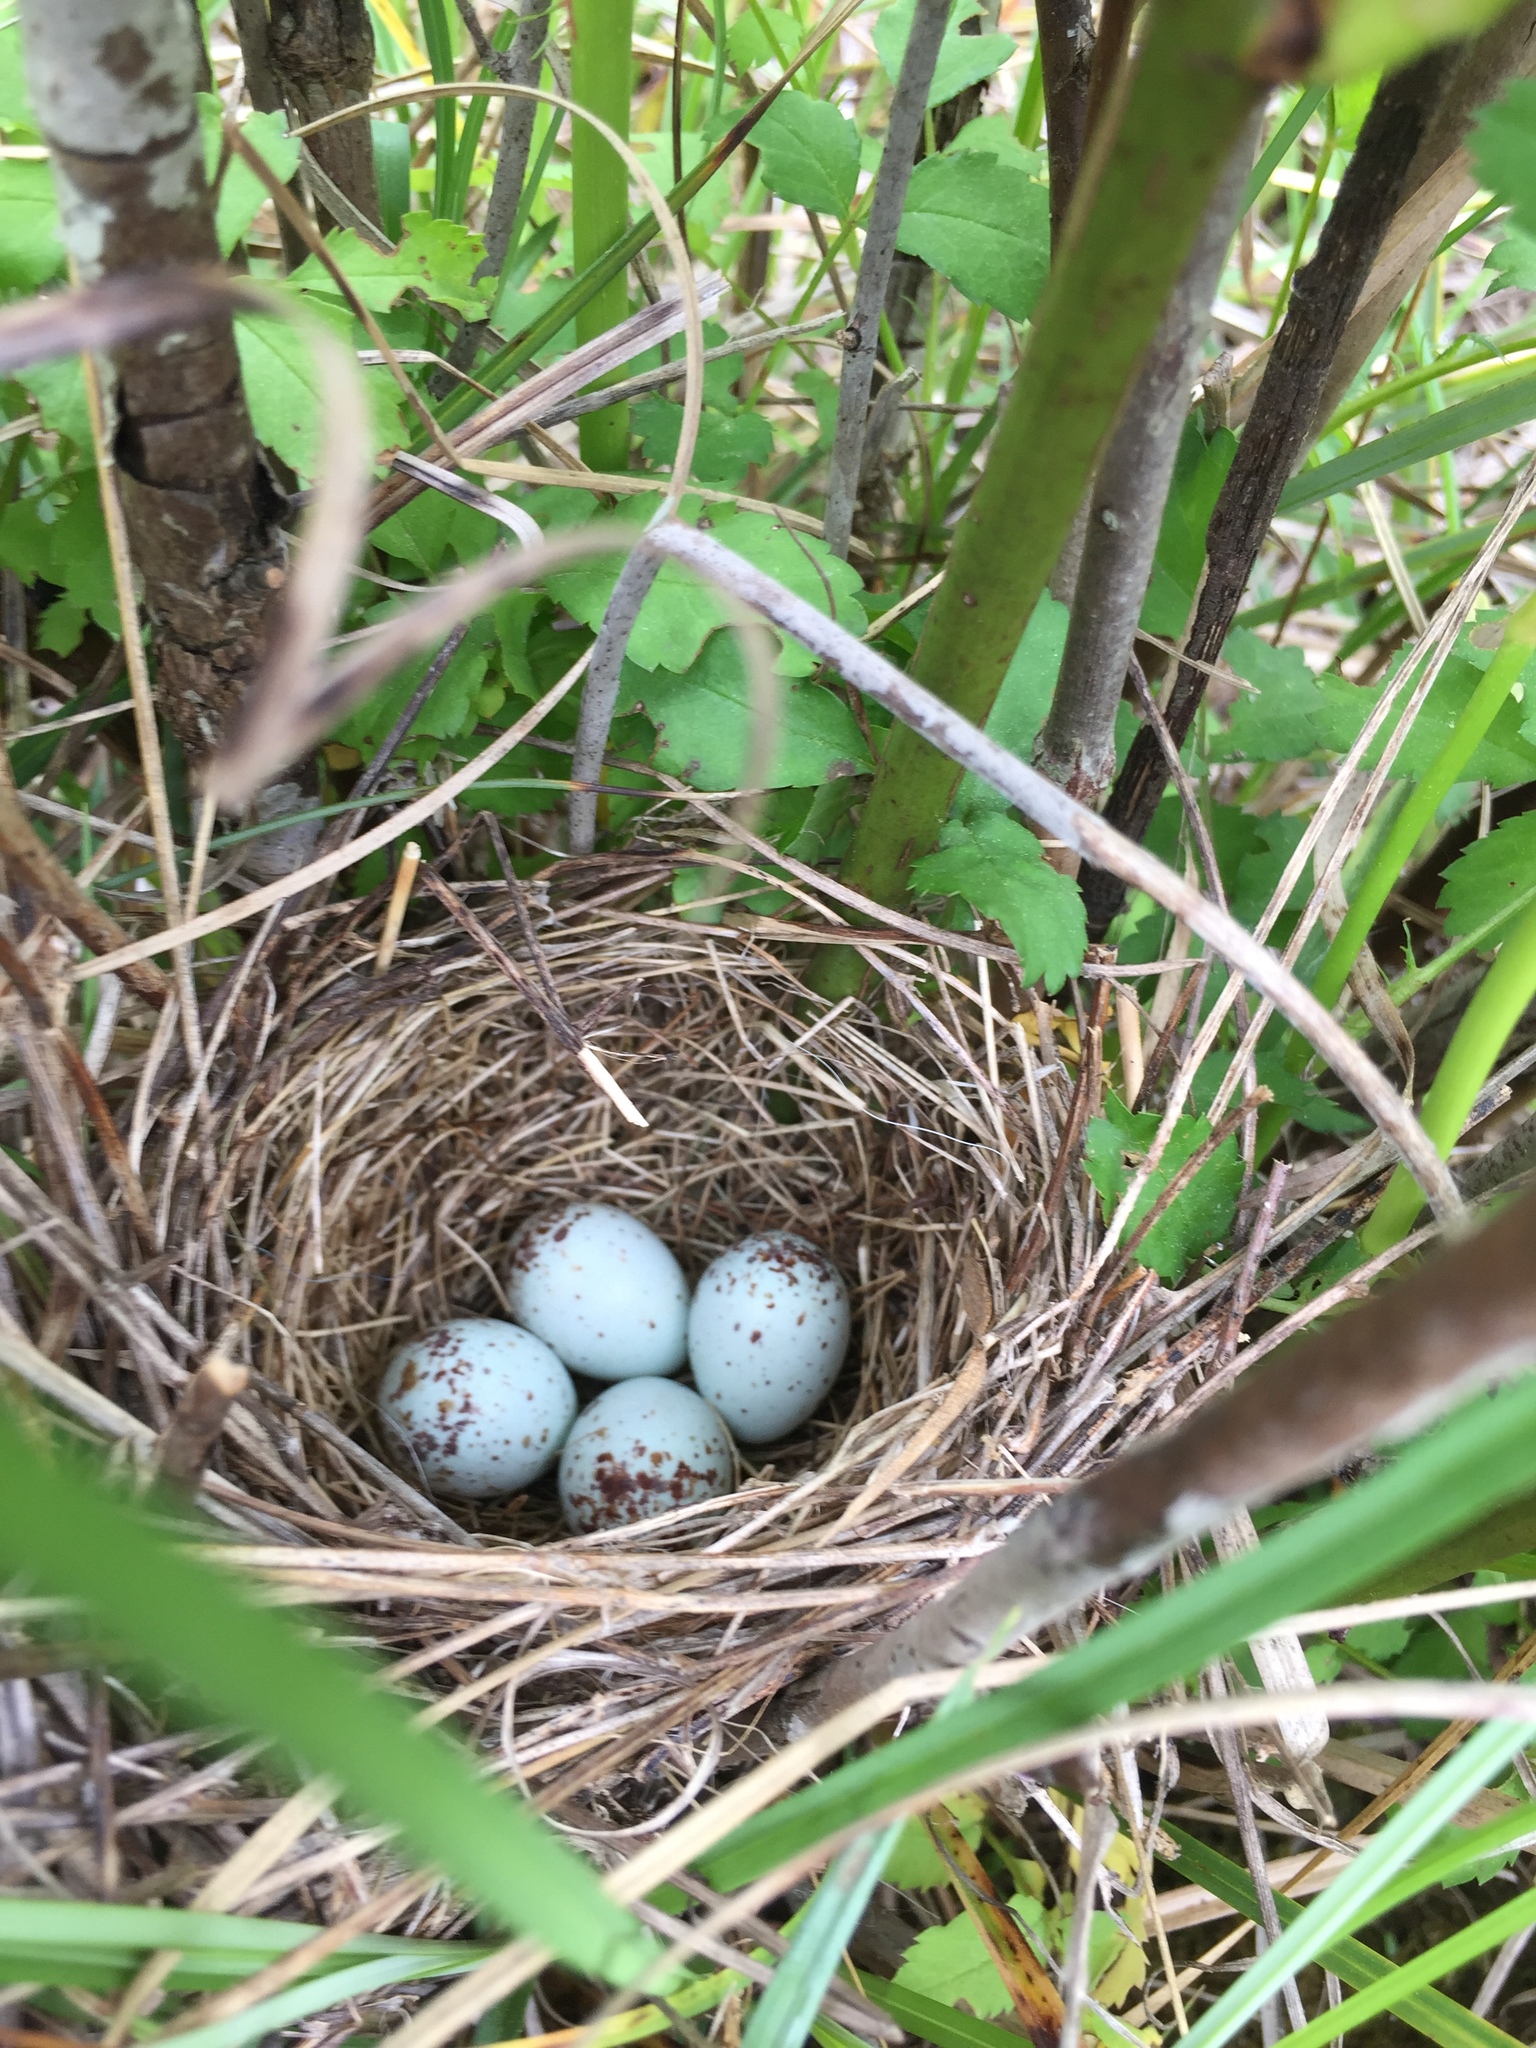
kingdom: Animalia
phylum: Chordata
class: Aves
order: Passeriformes
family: Passerellidae
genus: Spizella
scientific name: Spizella pusilla
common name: Field sparrow
